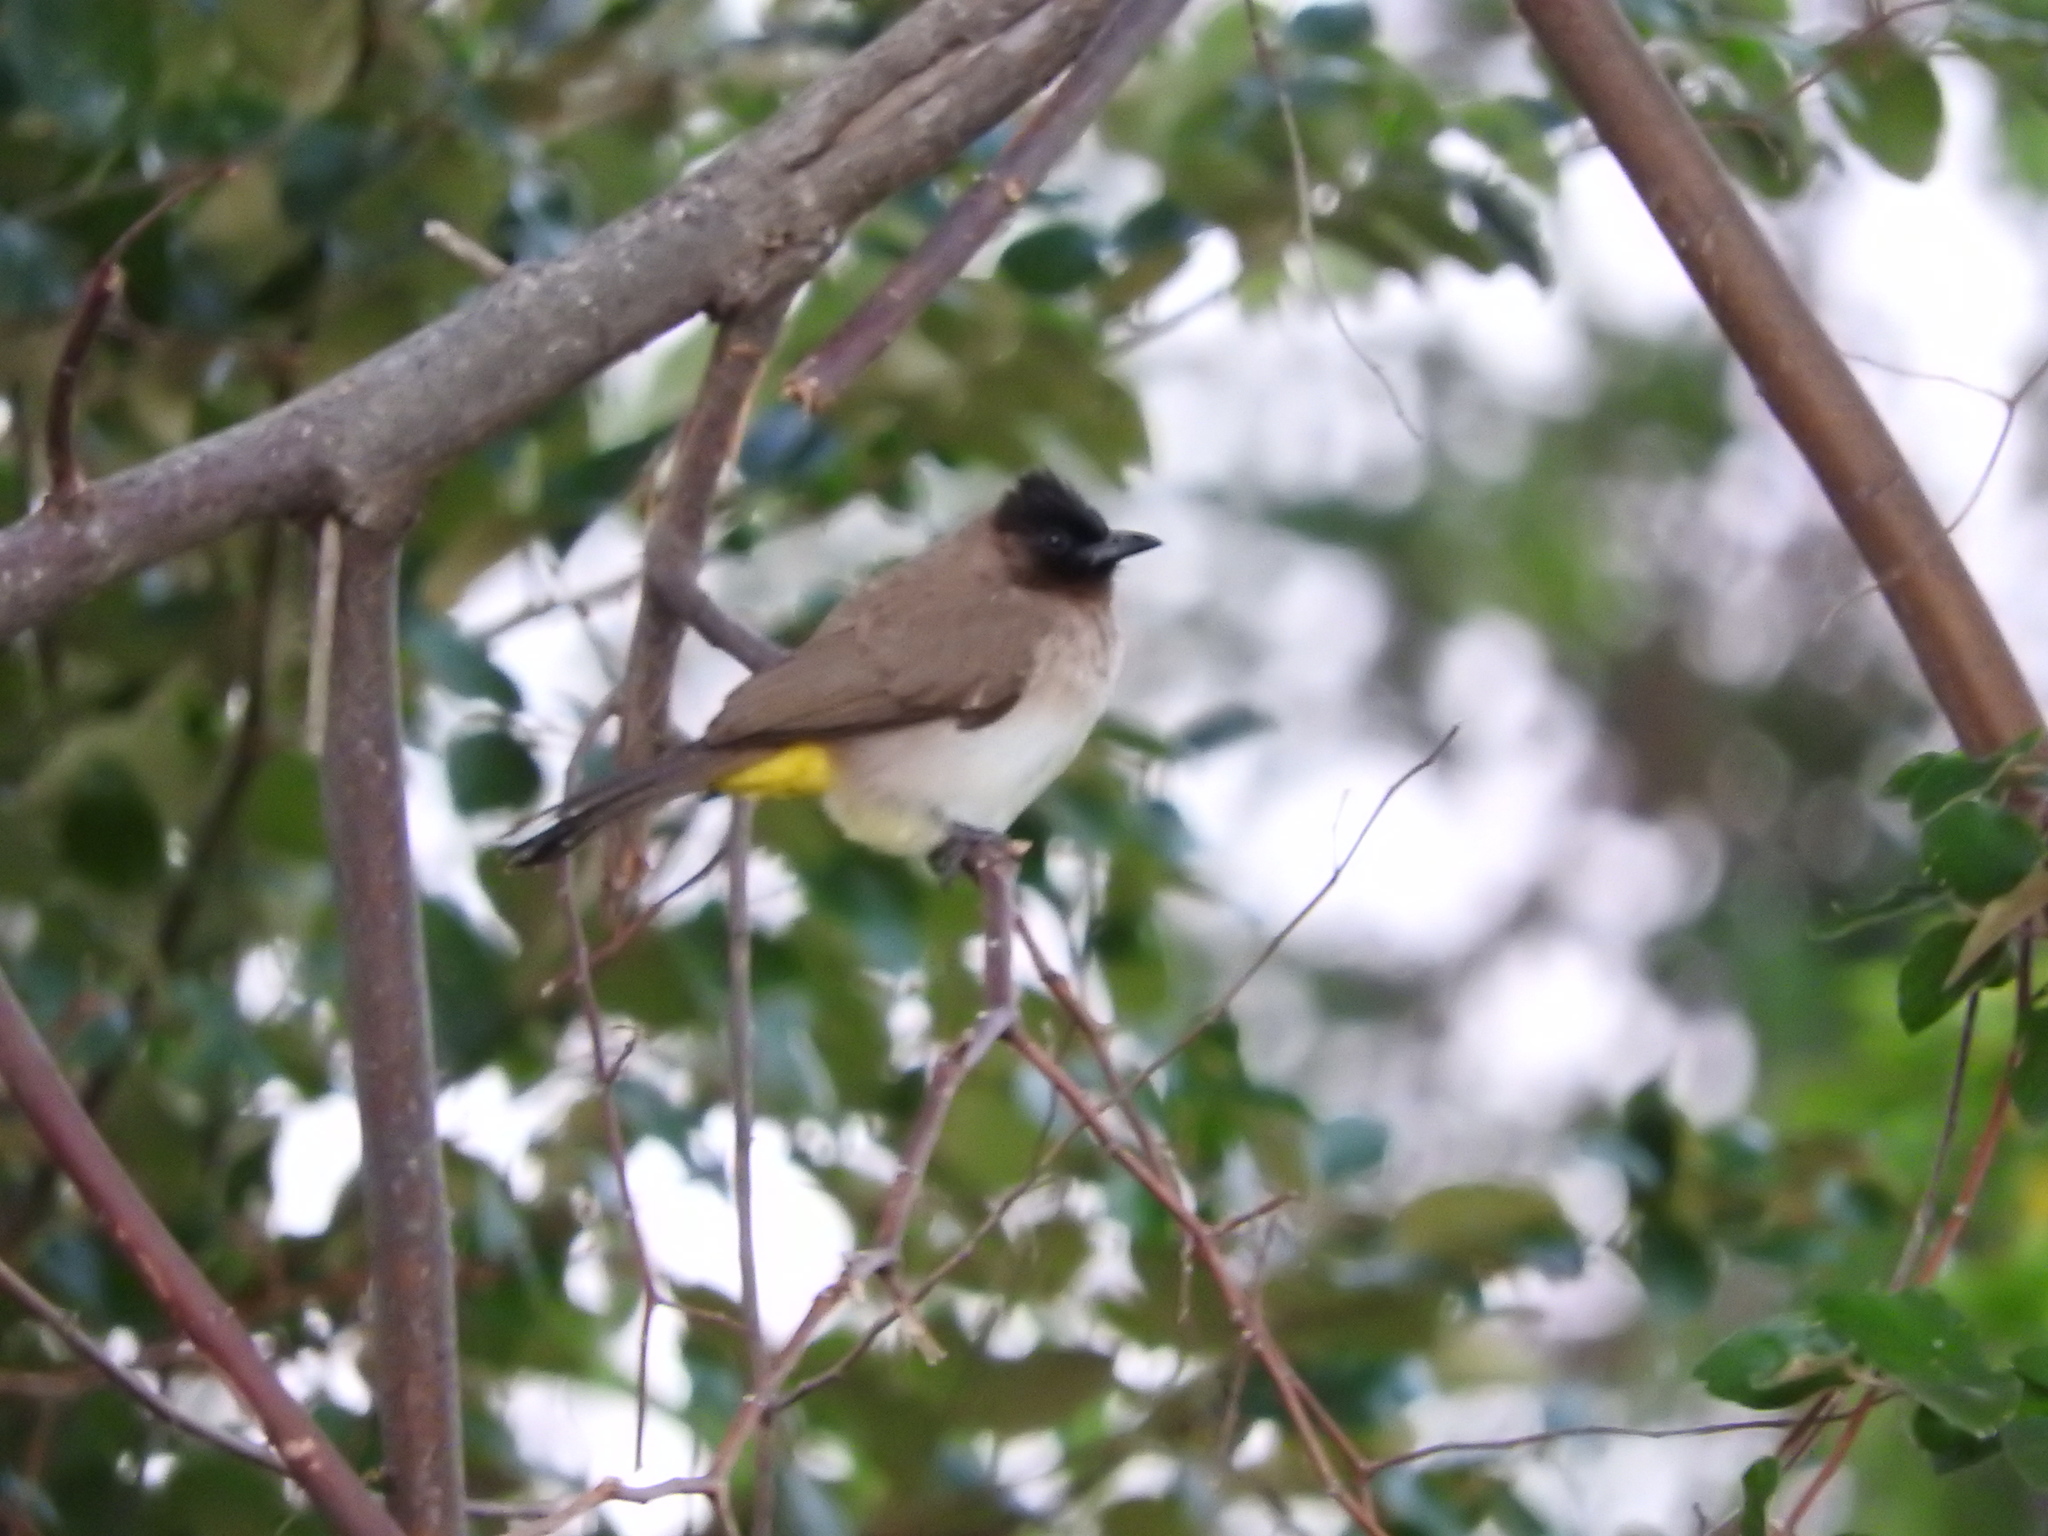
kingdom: Animalia
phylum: Chordata
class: Aves
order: Passeriformes
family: Pycnonotidae
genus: Pycnonotus
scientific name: Pycnonotus barbatus
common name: Common bulbul
